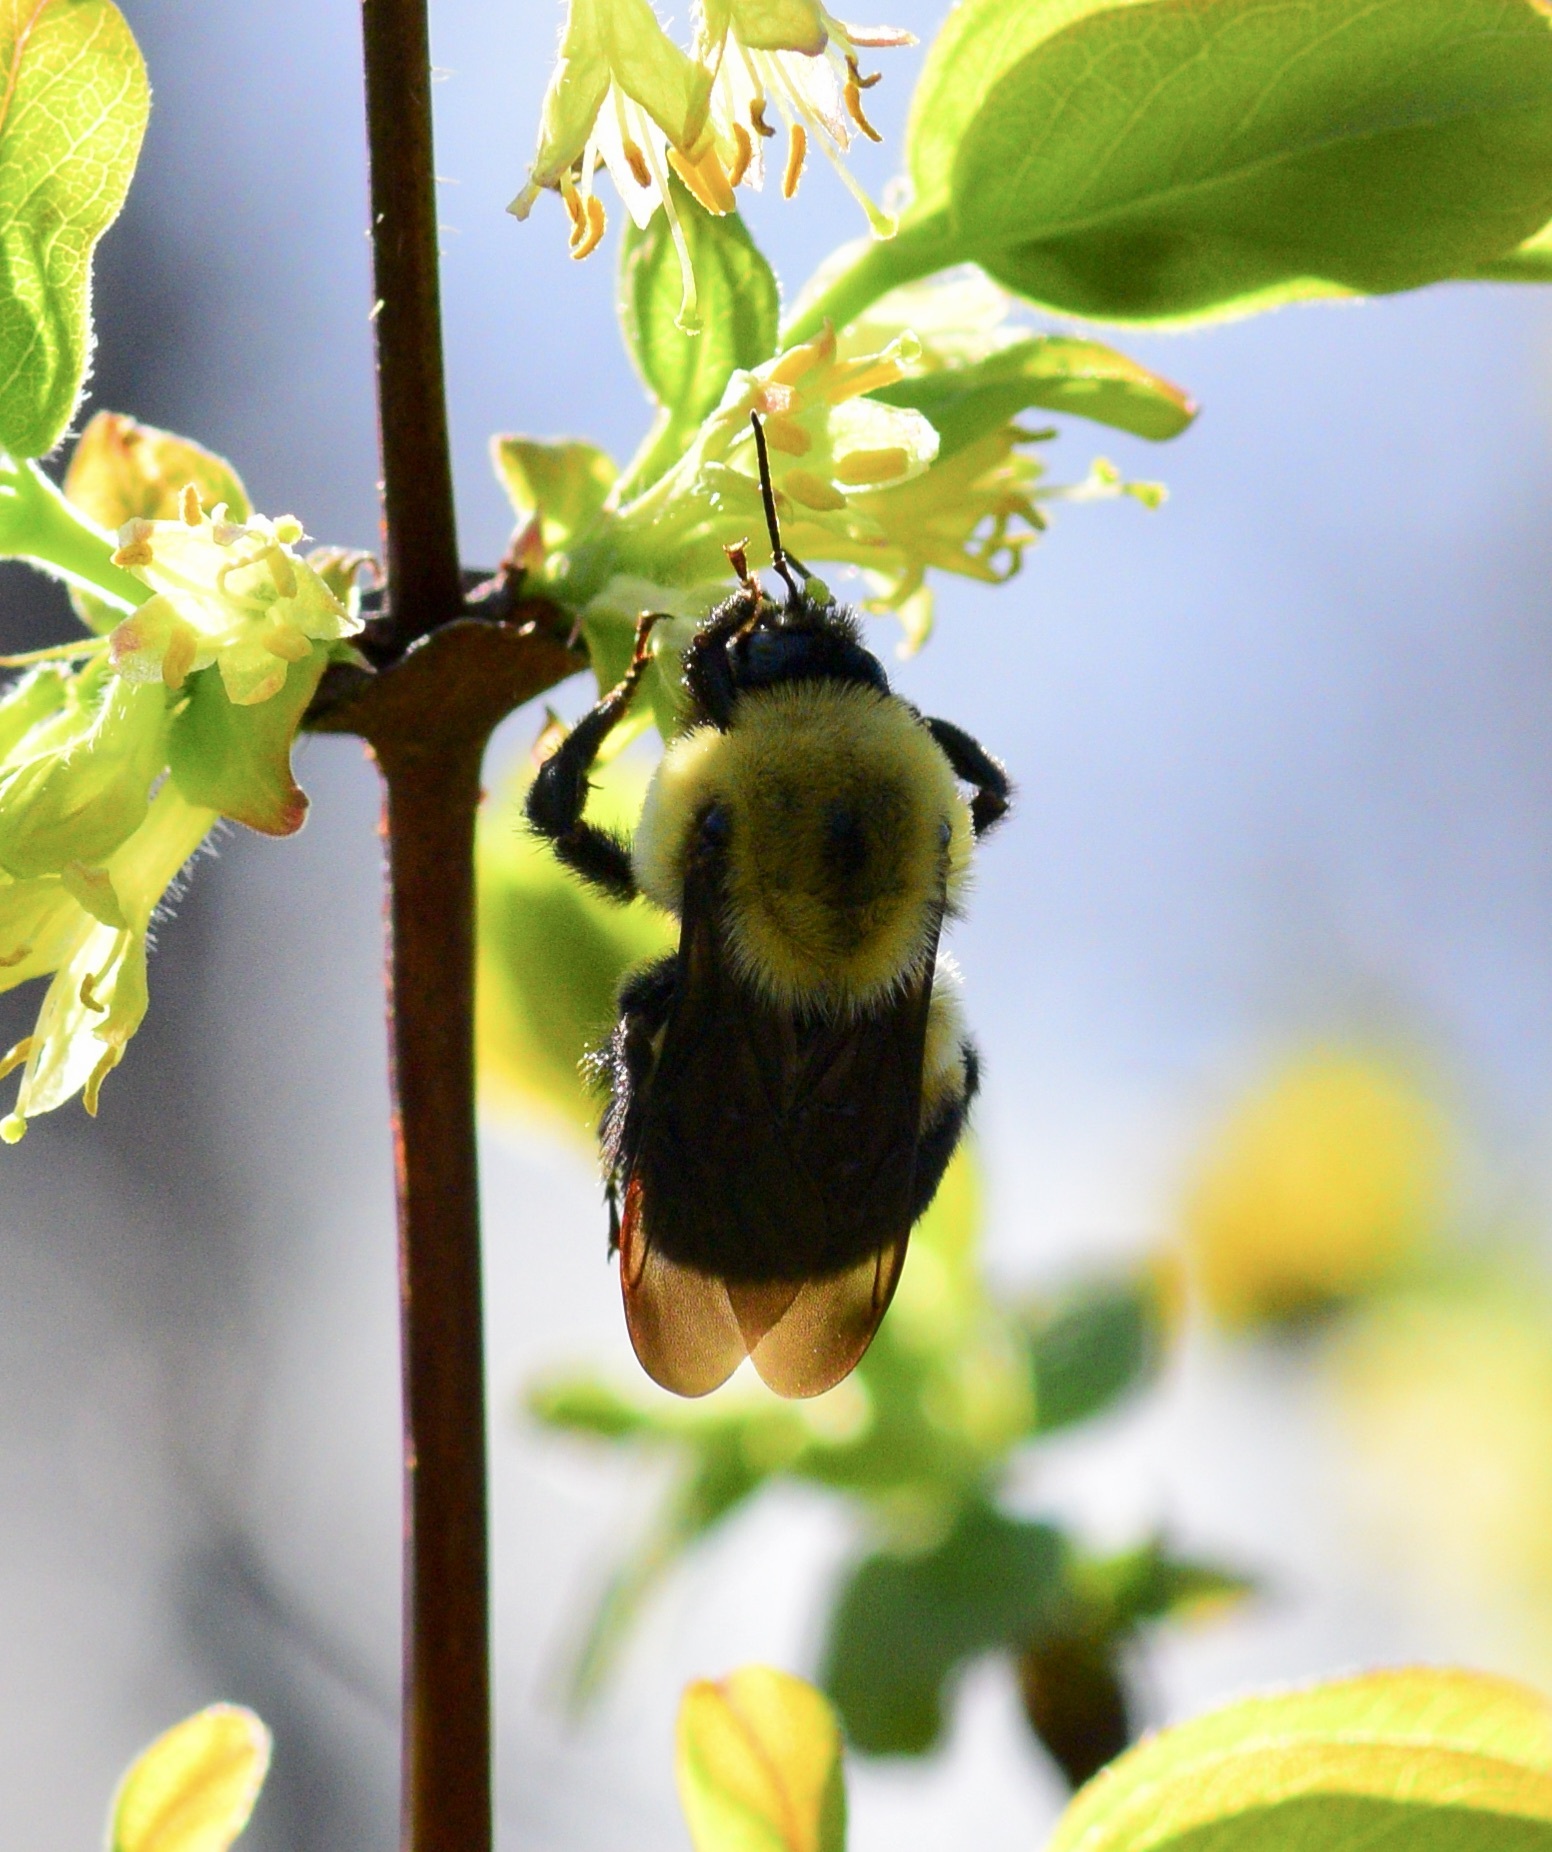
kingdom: Animalia
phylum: Arthropoda
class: Insecta
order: Hymenoptera
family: Apidae
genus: Bombus
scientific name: Bombus griseocollis
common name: Brown-belted bumble bee
